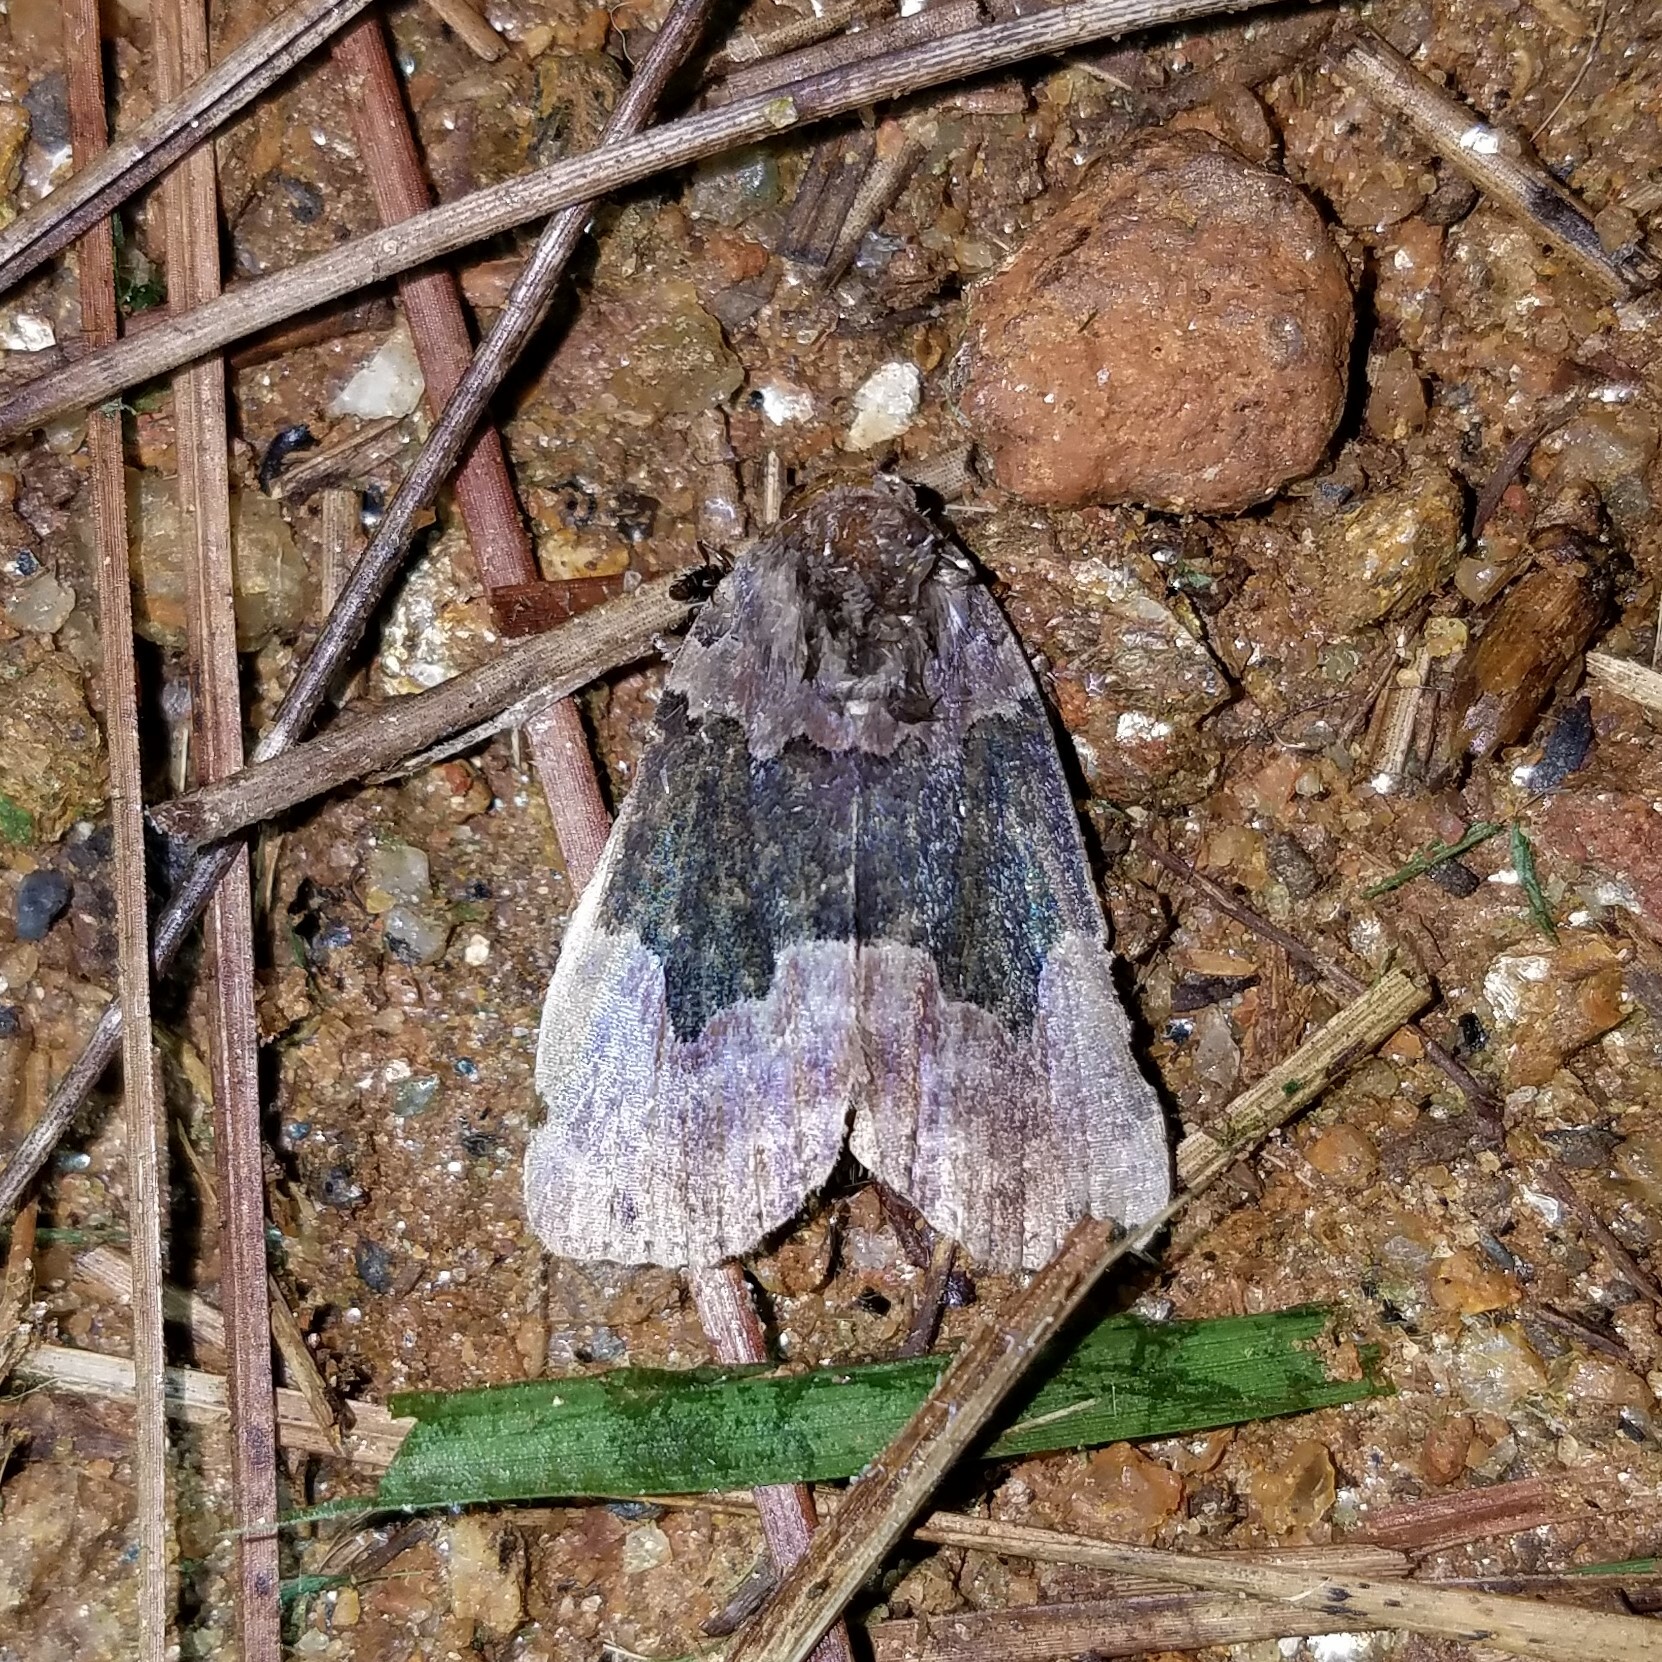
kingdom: Animalia
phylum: Arthropoda
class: Insecta
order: Lepidoptera
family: Erebidae
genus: Dinumma
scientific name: Dinumma deponens
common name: Purplish moth
